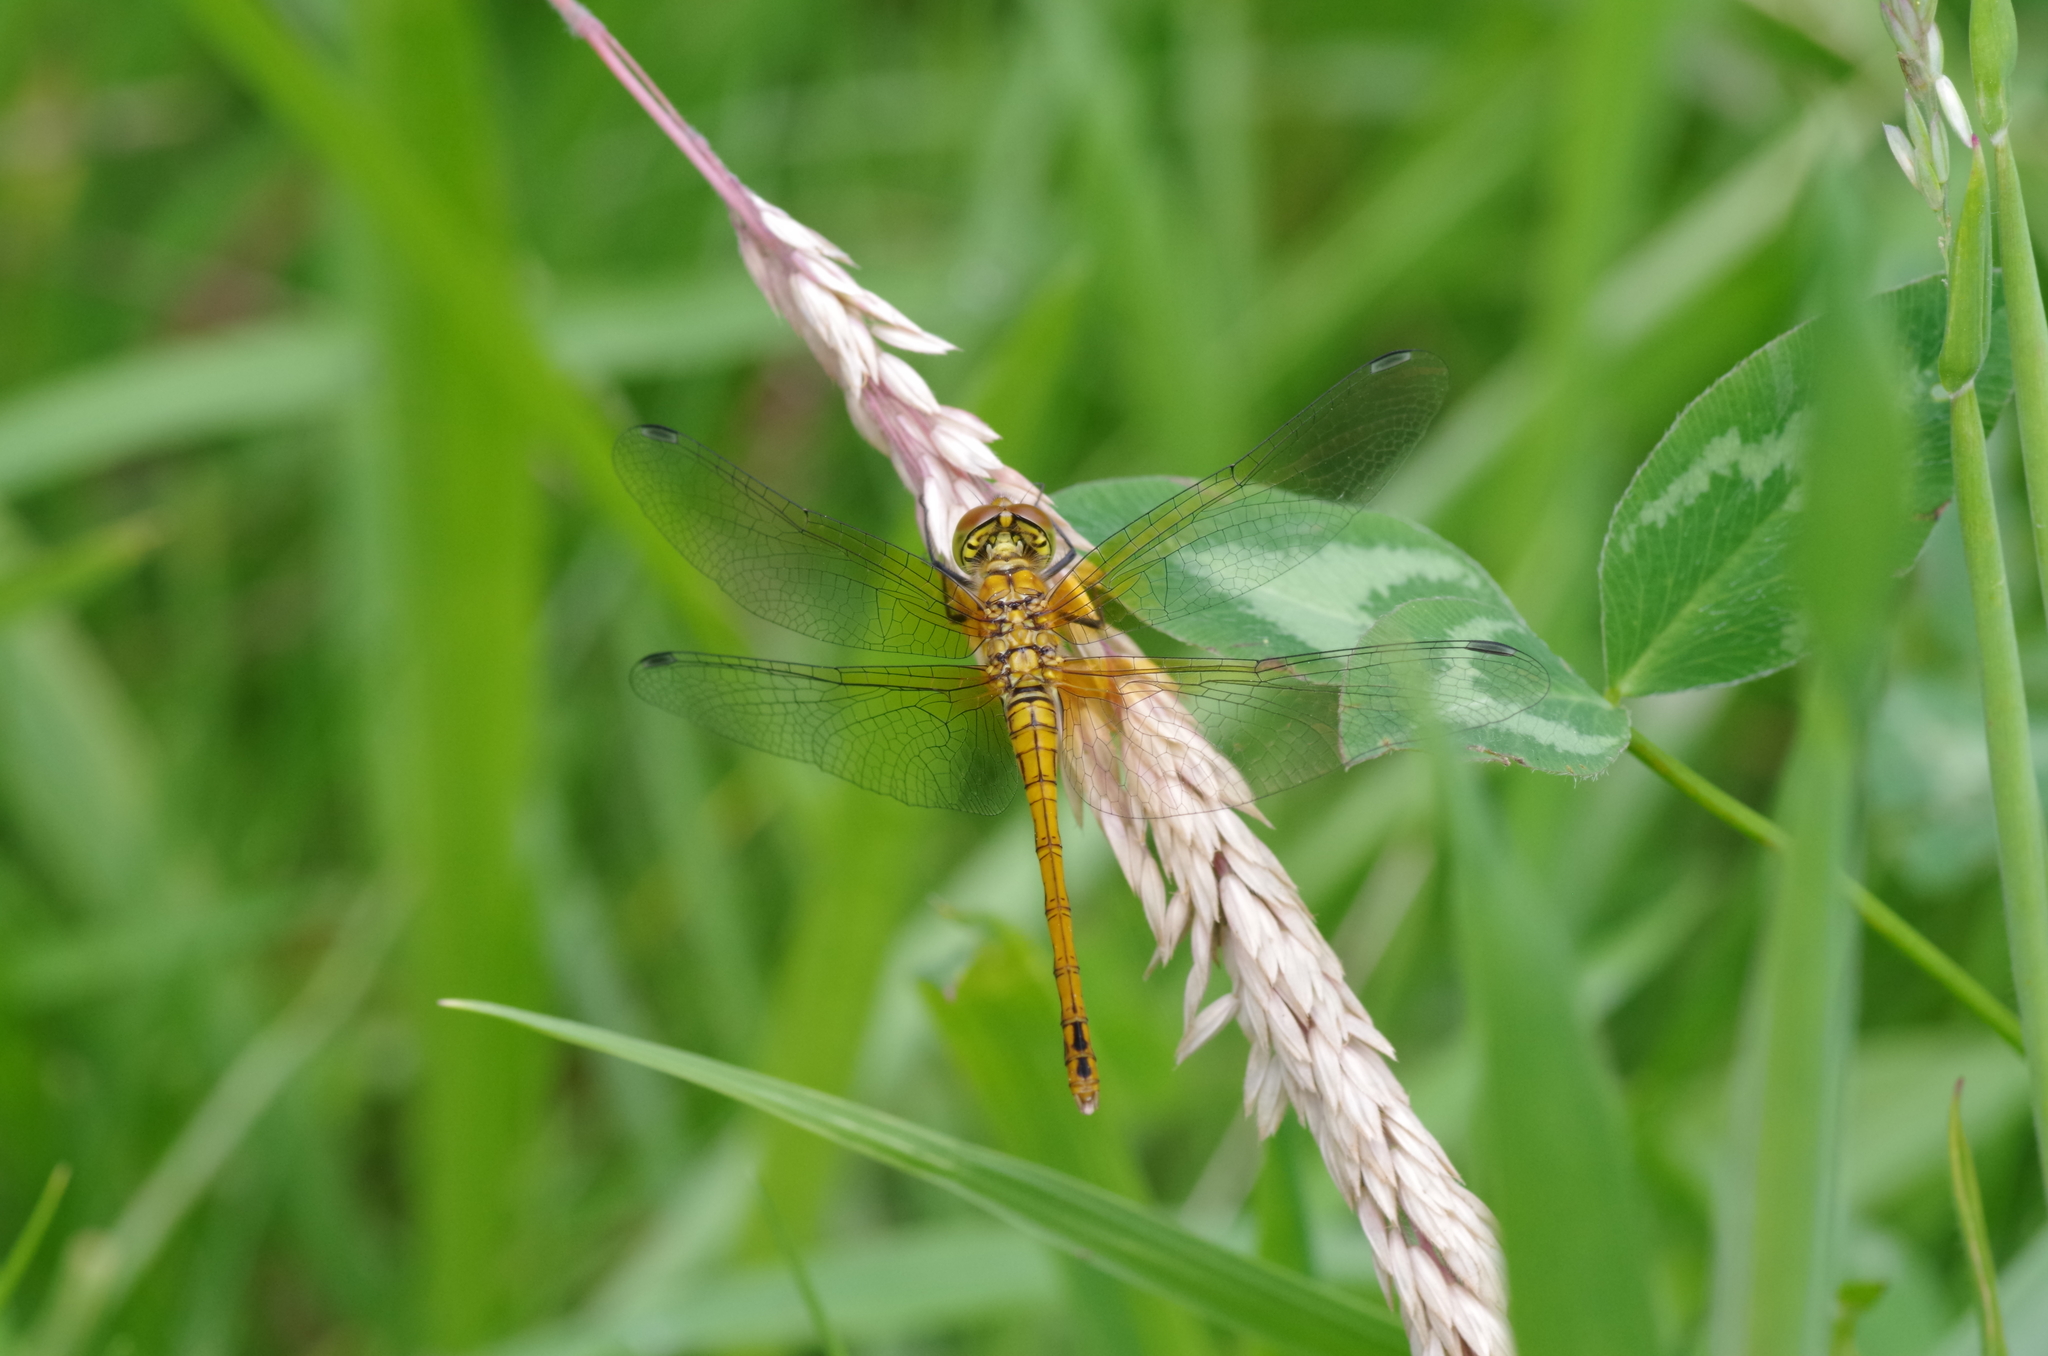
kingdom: Animalia
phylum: Arthropoda
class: Insecta
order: Odonata
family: Libellulidae
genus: Sympetrum
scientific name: Sympetrum sanguineum
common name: Ruddy darter
